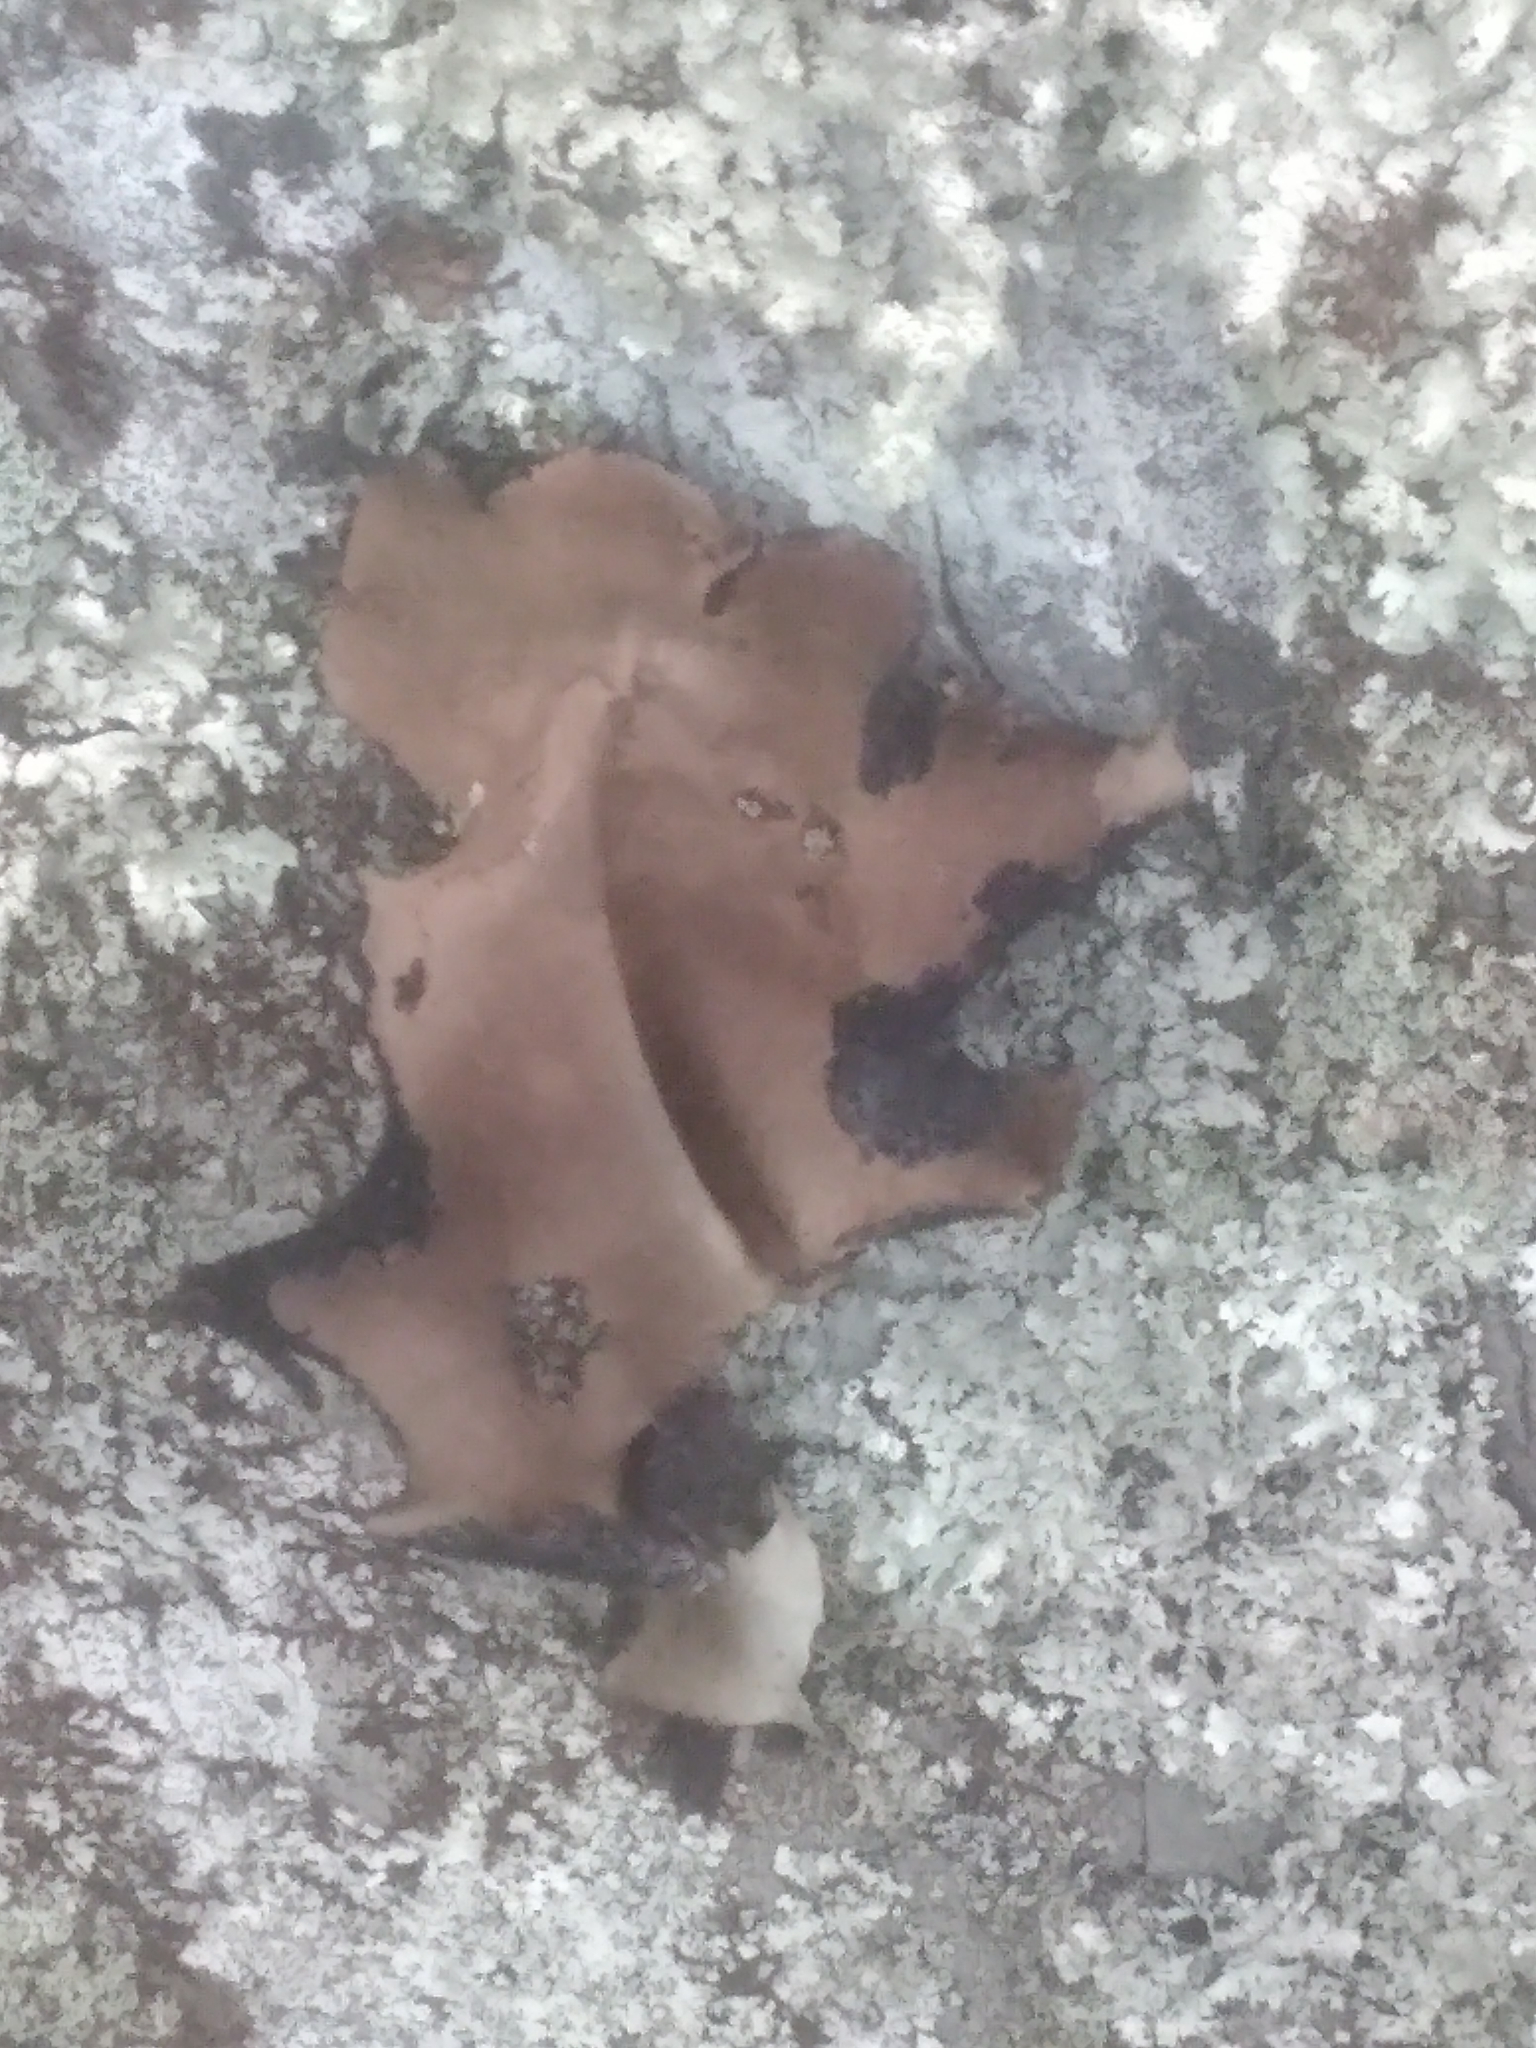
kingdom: Fungi
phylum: Ascomycota
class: Lecanoromycetes
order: Umbilicariales
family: Umbilicariaceae
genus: Umbilicaria
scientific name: Umbilicaria mammulata
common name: Smooth rock tripe
